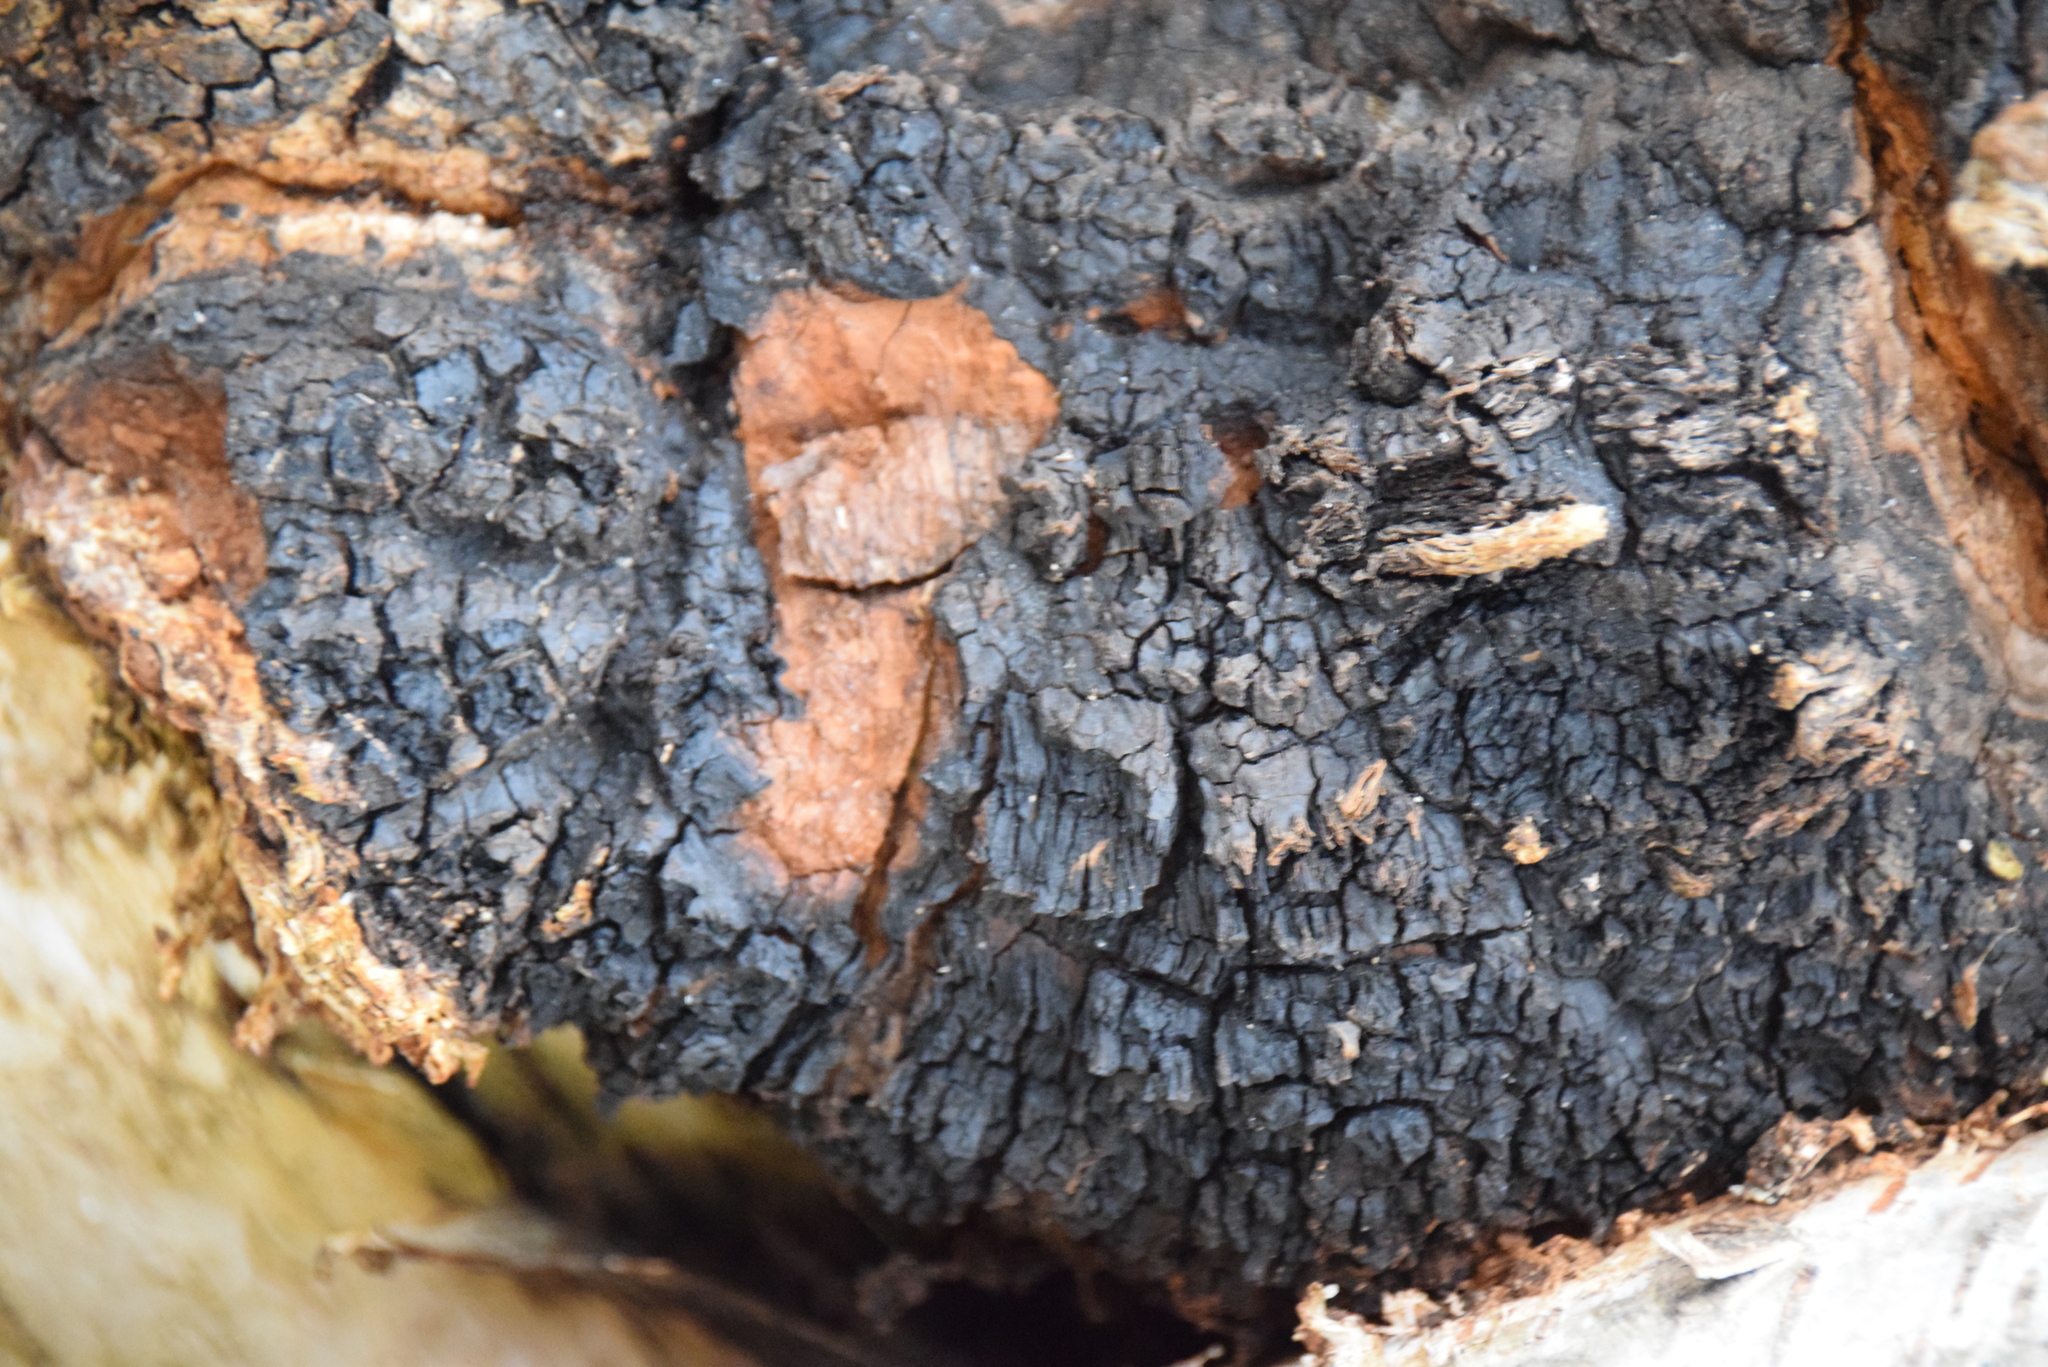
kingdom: Fungi
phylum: Basidiomycota
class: Agaricomycetes
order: Hymenochaetales
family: Hymenochaetaceae
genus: Inonotus
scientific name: Inonotus obliquus
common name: Chaga
